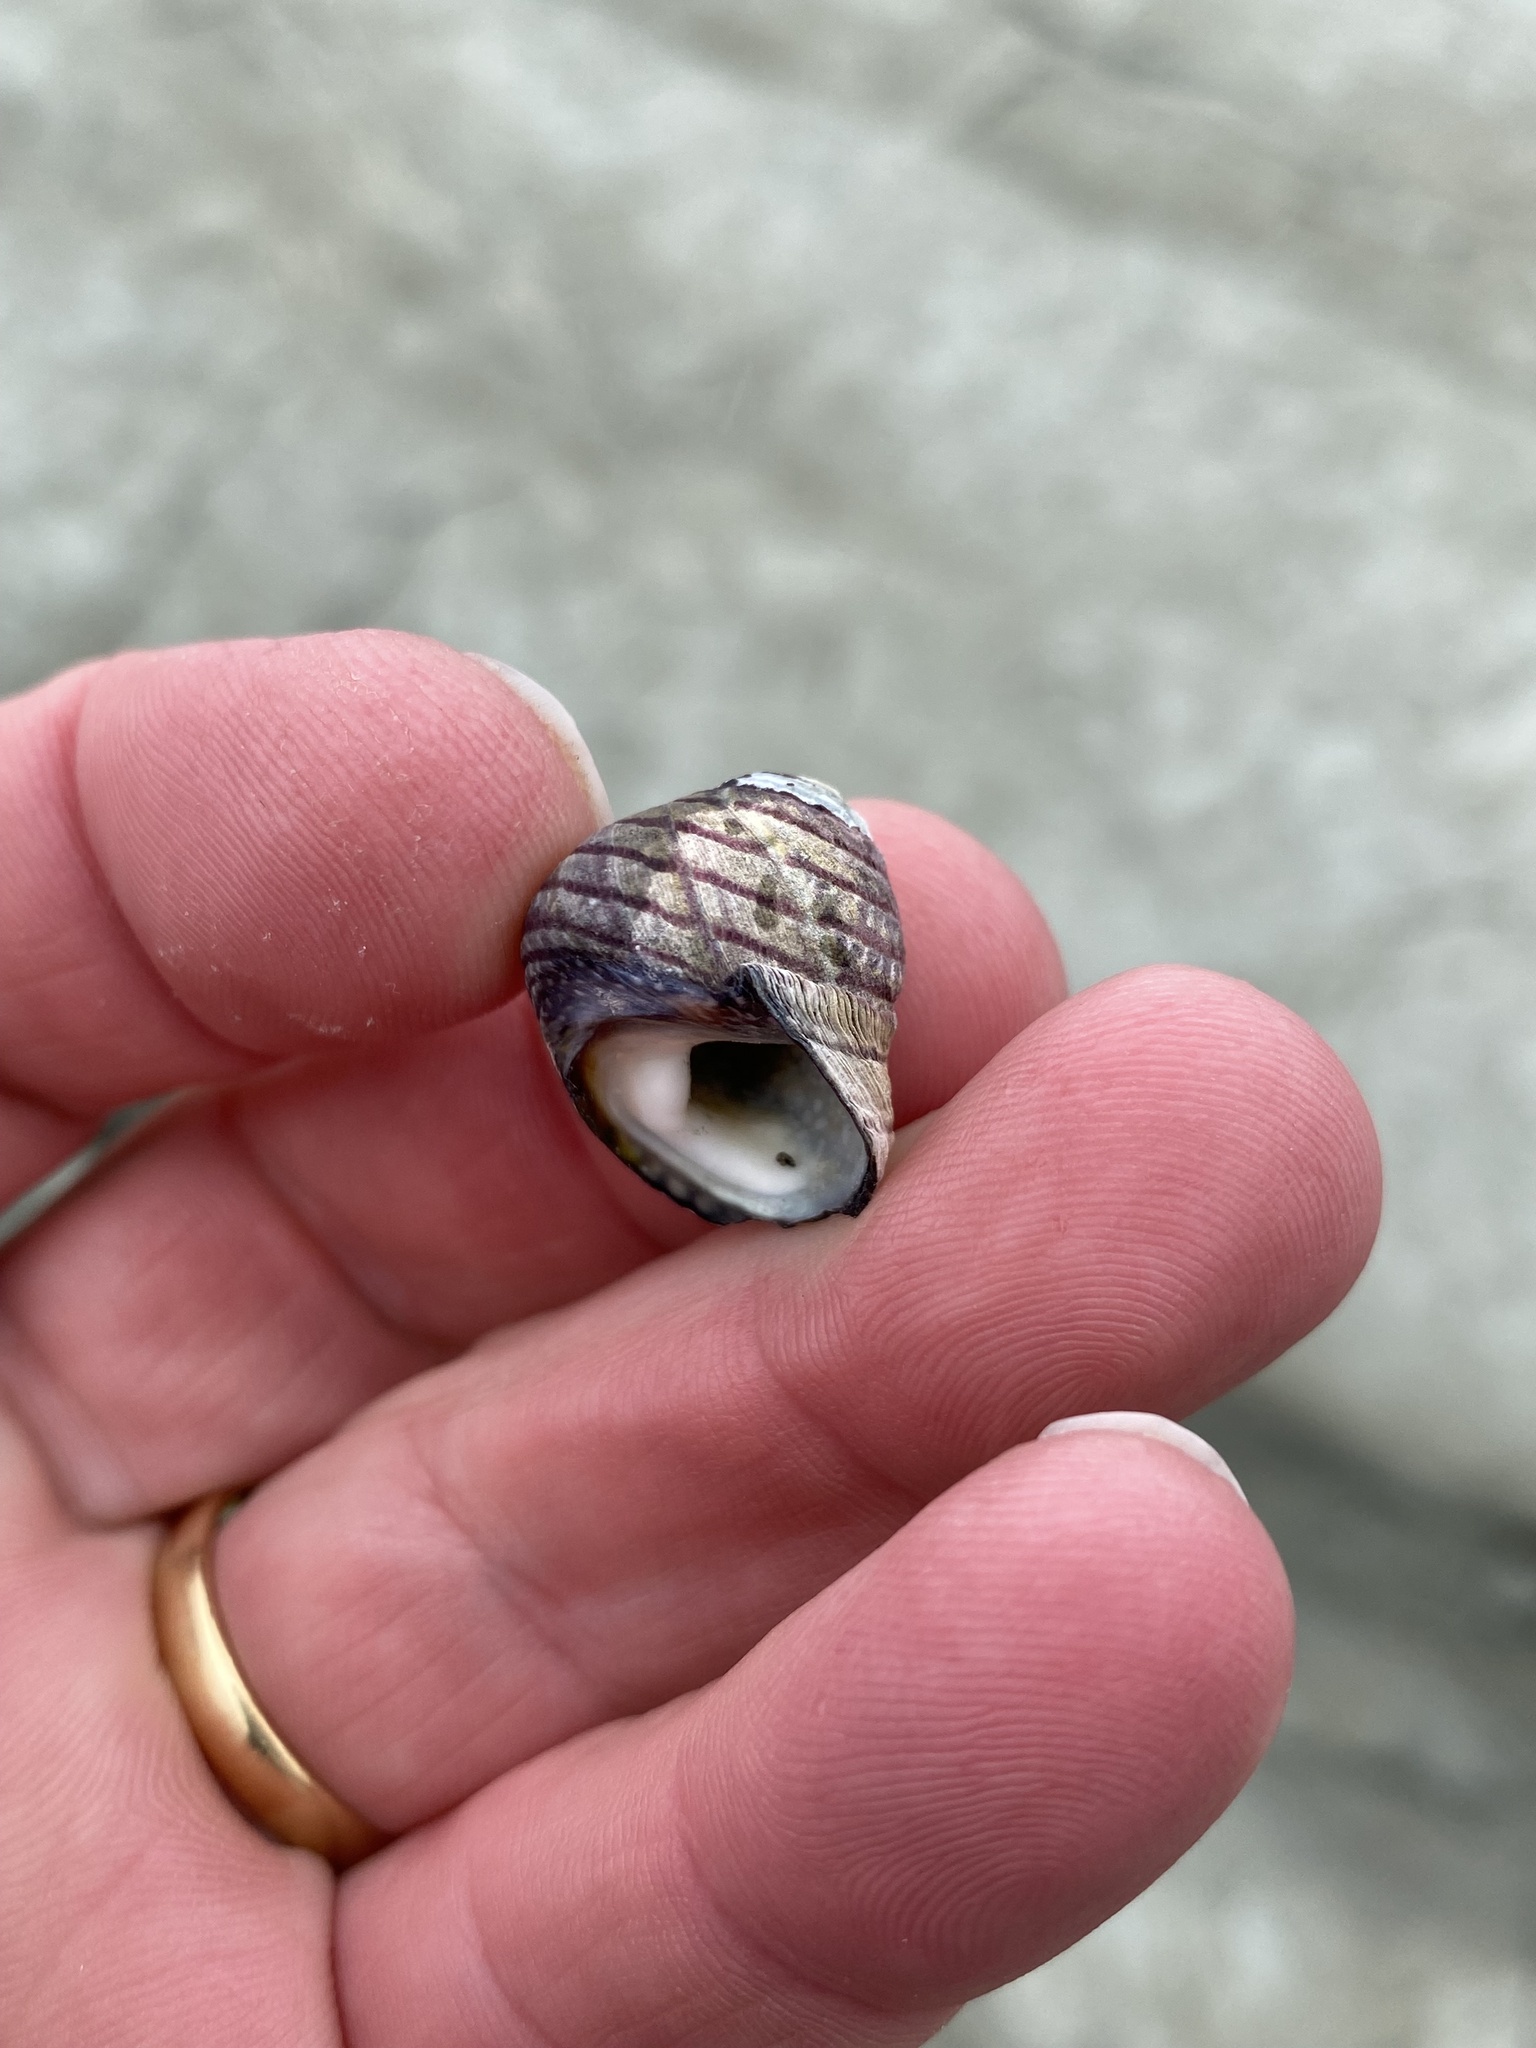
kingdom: Animalia
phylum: Mollusca
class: Gastropoda
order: Trochida
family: Trochidae
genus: Diloma
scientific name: Diloma aethiops
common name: Scorched monodont
